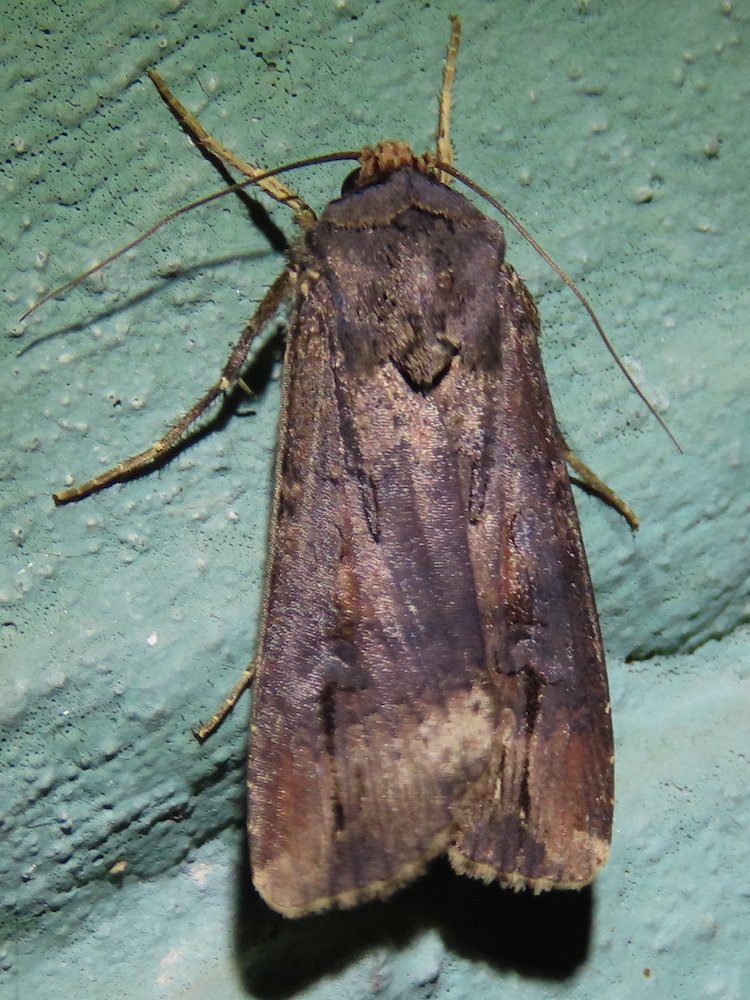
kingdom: Animalia
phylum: Arthropoda
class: Insecta
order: Lepidoptera
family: Noctuidae
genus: Agrotis
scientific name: Agrotis ipsilon
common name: Dark sword-grass
